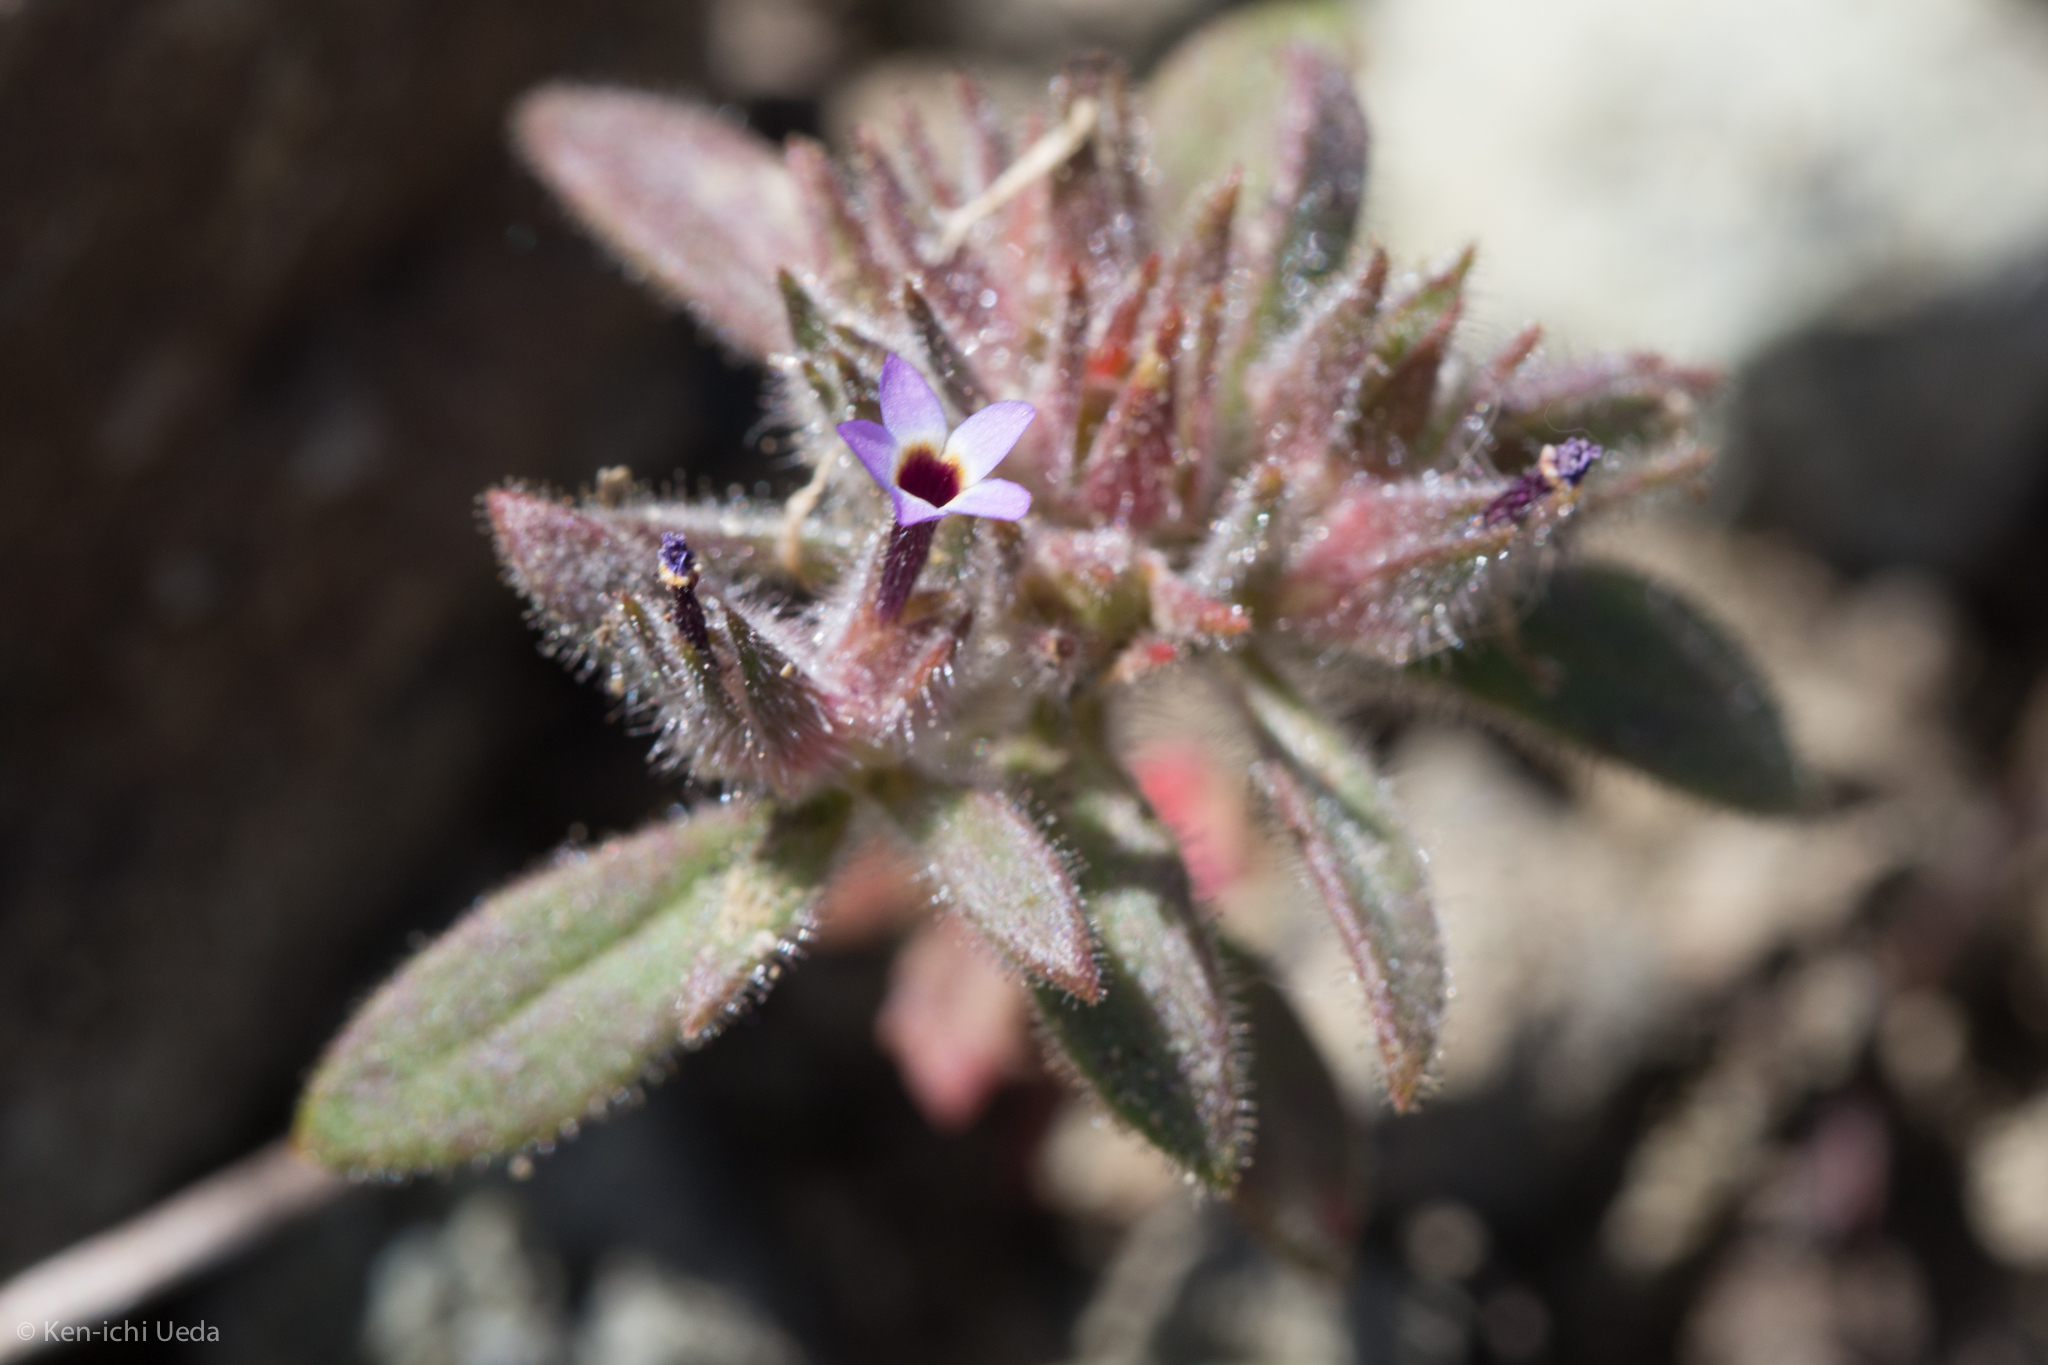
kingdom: Plantae
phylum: Tracheophyta
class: Magnoliopsida
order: Ericales
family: Polemoniaceae
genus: Collomia
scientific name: Collomia diversifolia
